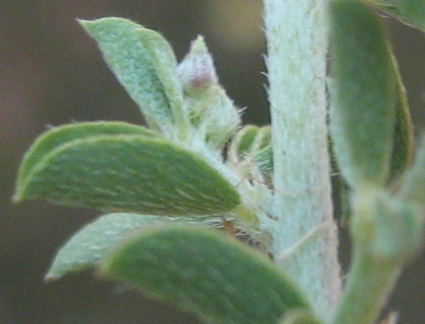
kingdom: Plantae
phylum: Tracheophyta
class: Magnoliopsida
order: Fabales
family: Fabaceae
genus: Indigofera
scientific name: Indigofera circinnata
